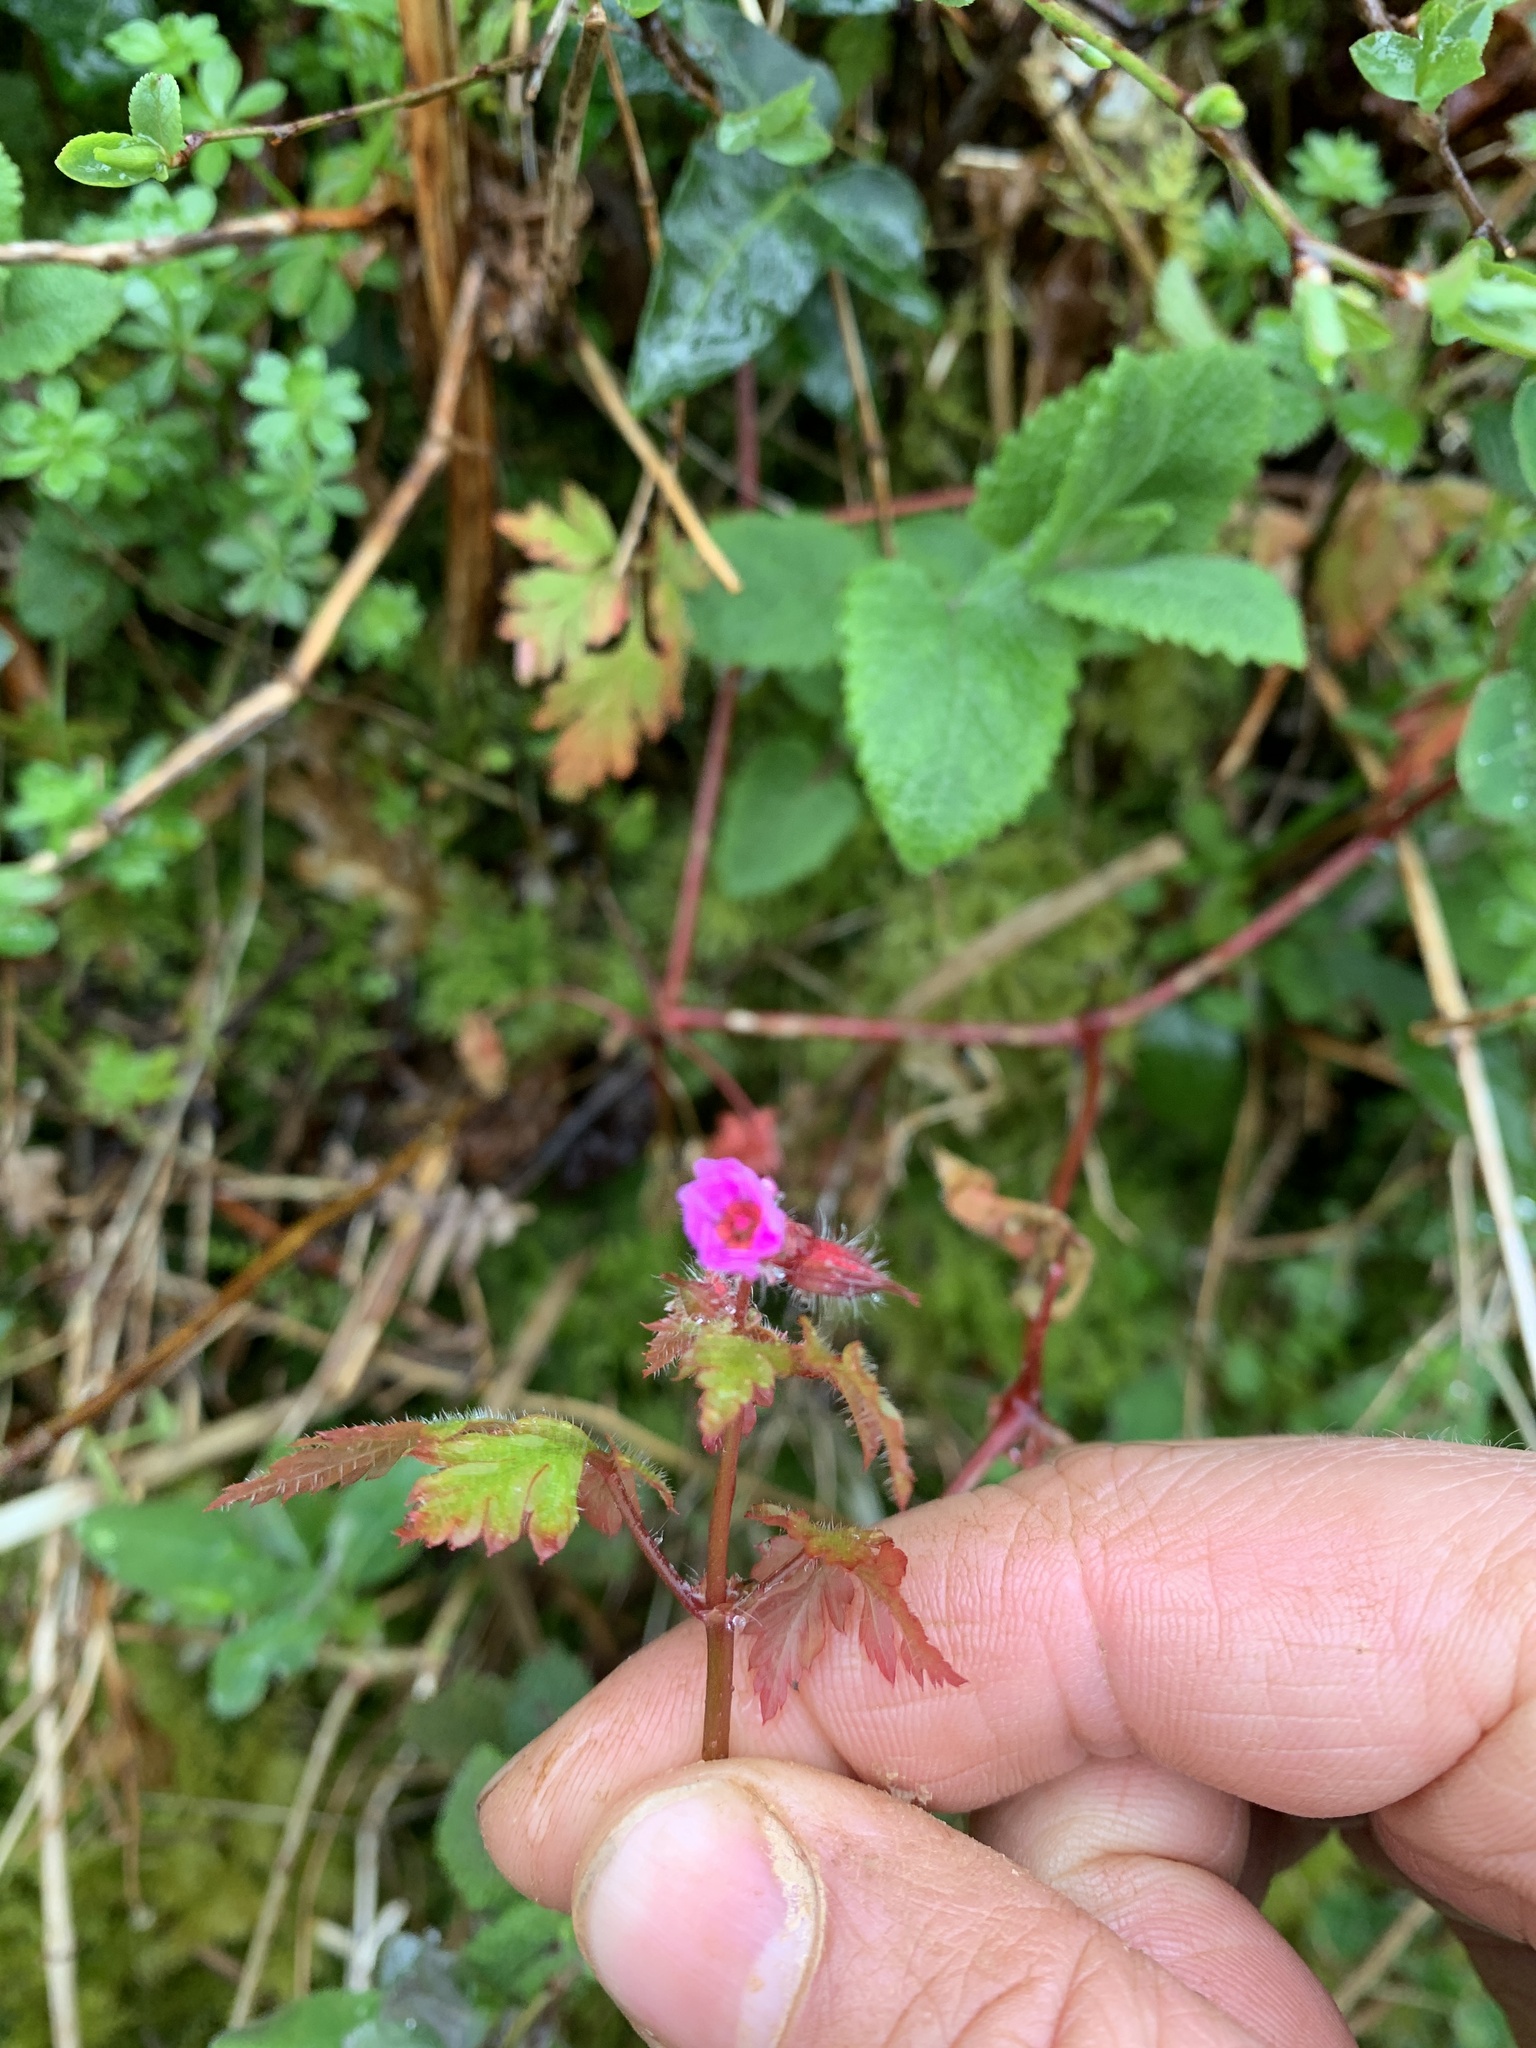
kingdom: Plantae
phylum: Tracheophyta
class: Magnoliopsida
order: Geraniales
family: Geraniaceae
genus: Geranium
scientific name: Geranium robertianum
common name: Herb-robert
